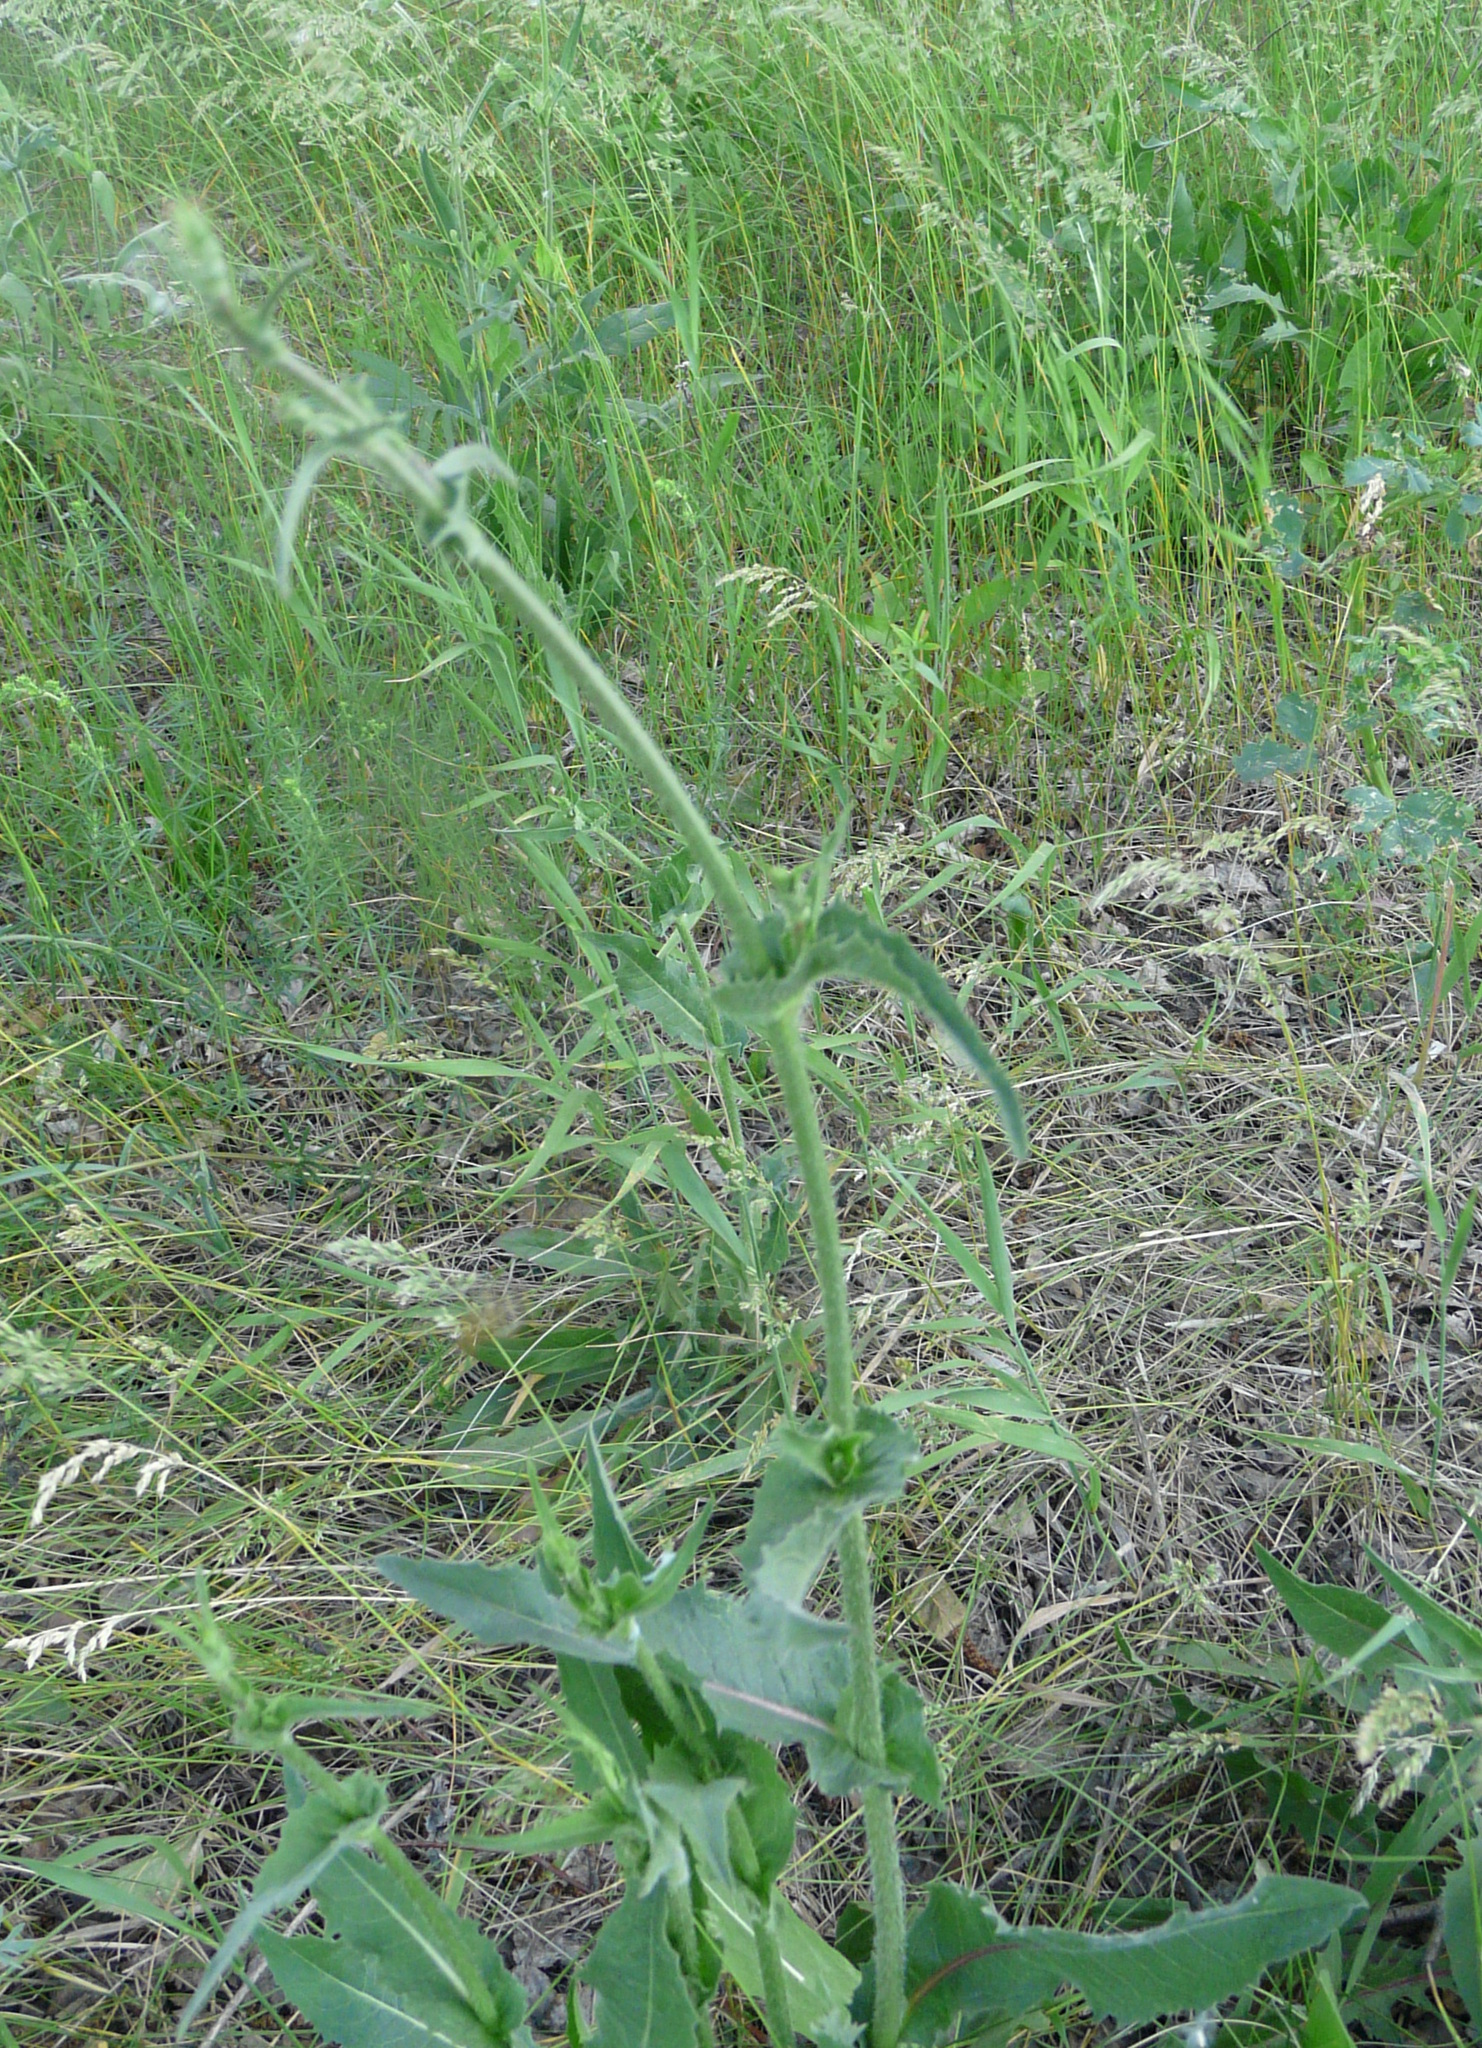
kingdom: Plantae
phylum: Tracheophyta
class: Magnoliopsida
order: Asterales
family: Asteraceae
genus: Cichorium
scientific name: Cichorium intybus
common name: Chicory
